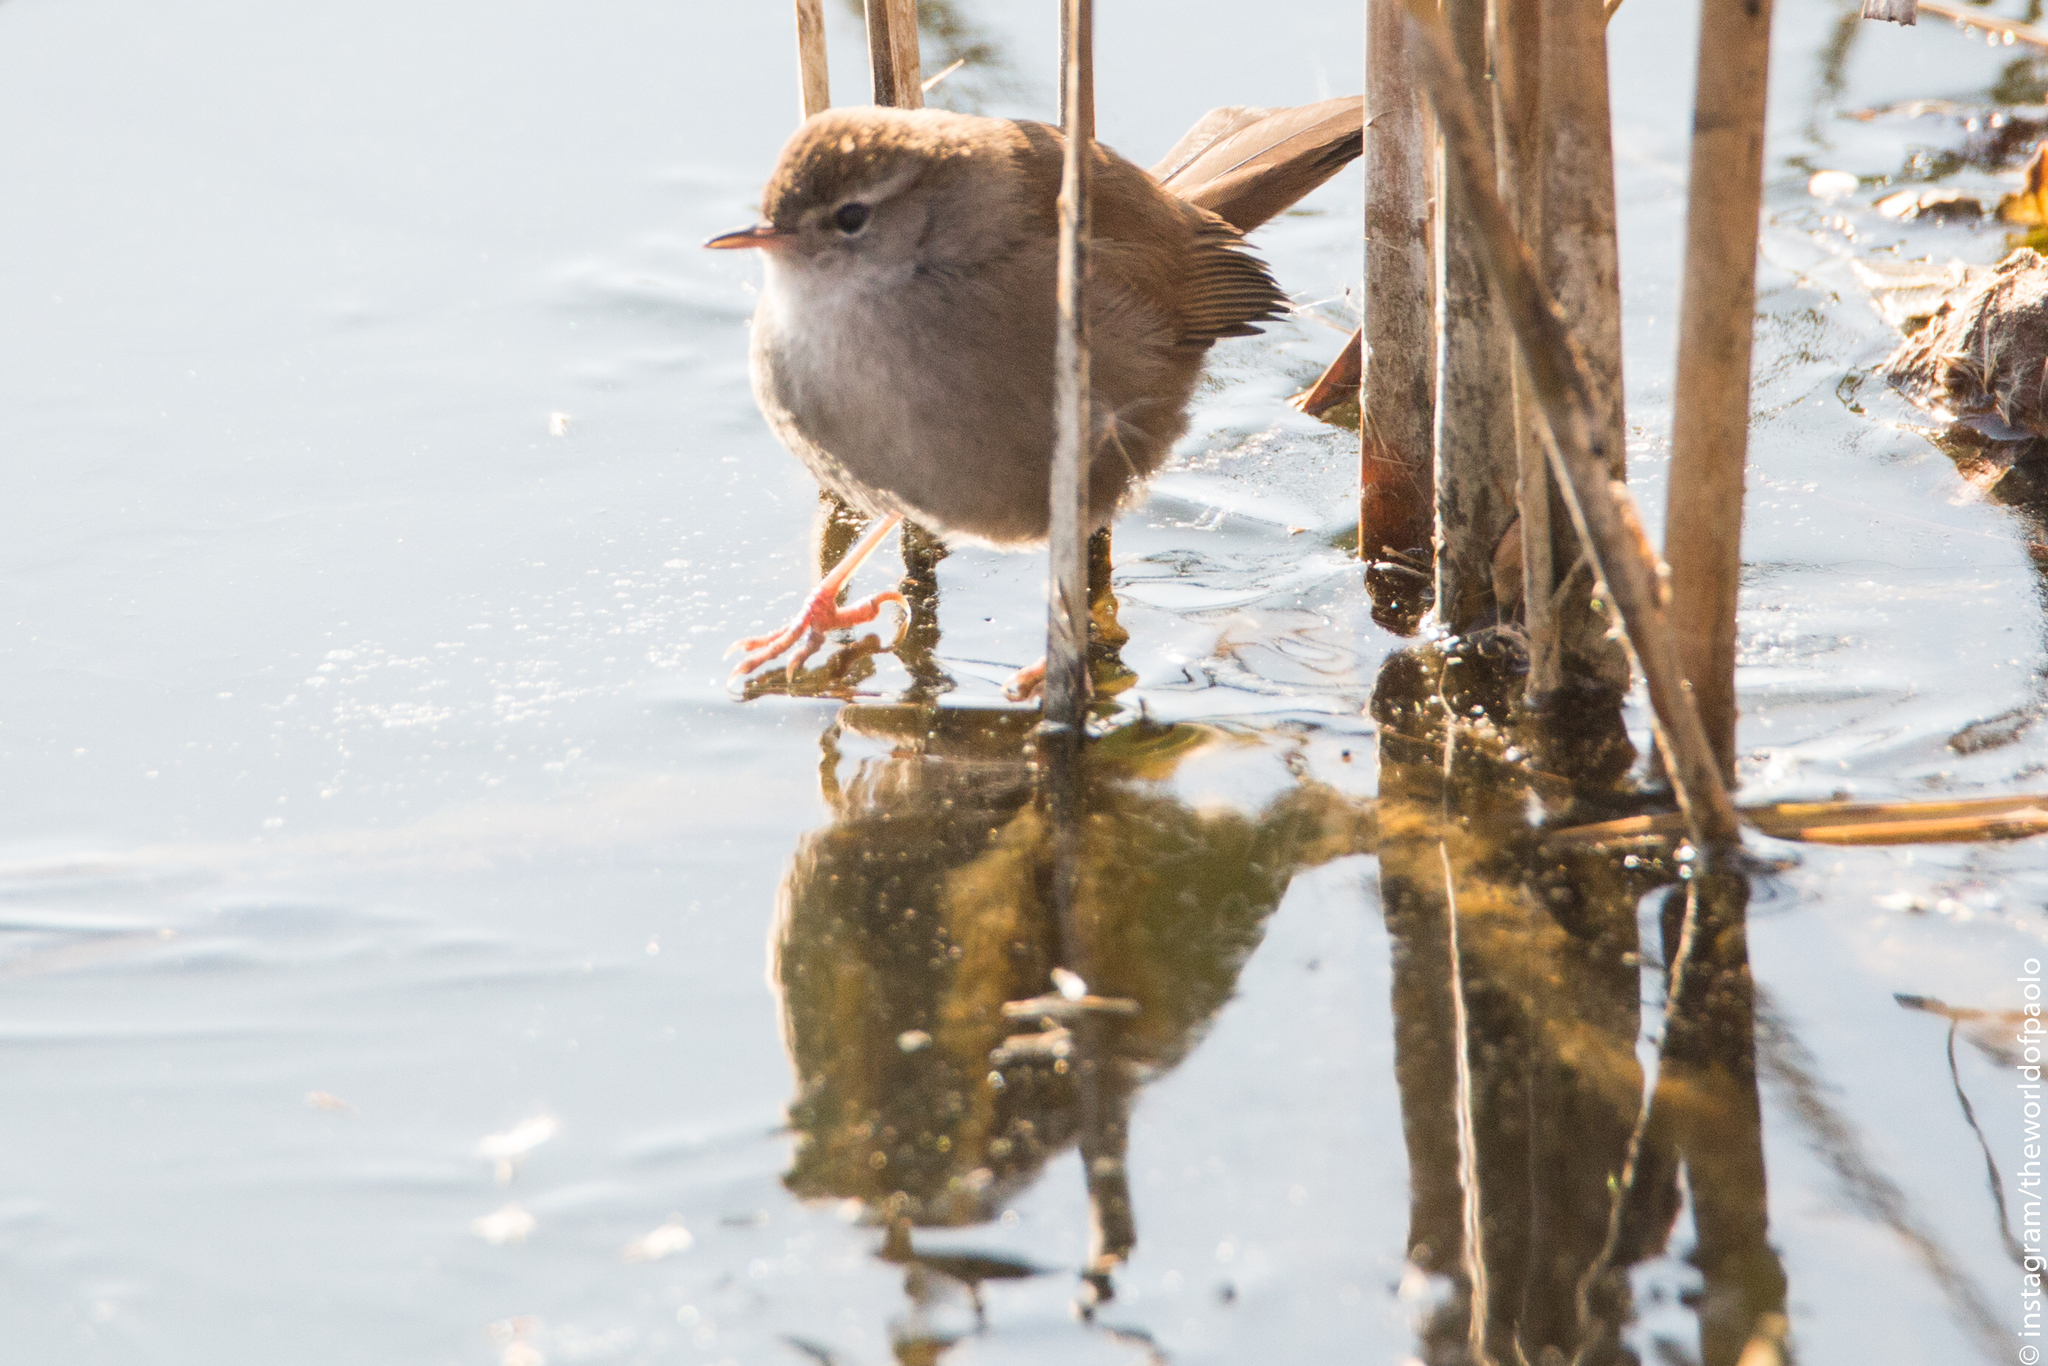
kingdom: Animalia
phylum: Chordata
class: Aves
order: Passeriformes
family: Cettiidae
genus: Cettia
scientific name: Cettia cetti
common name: Cetti's warbler
